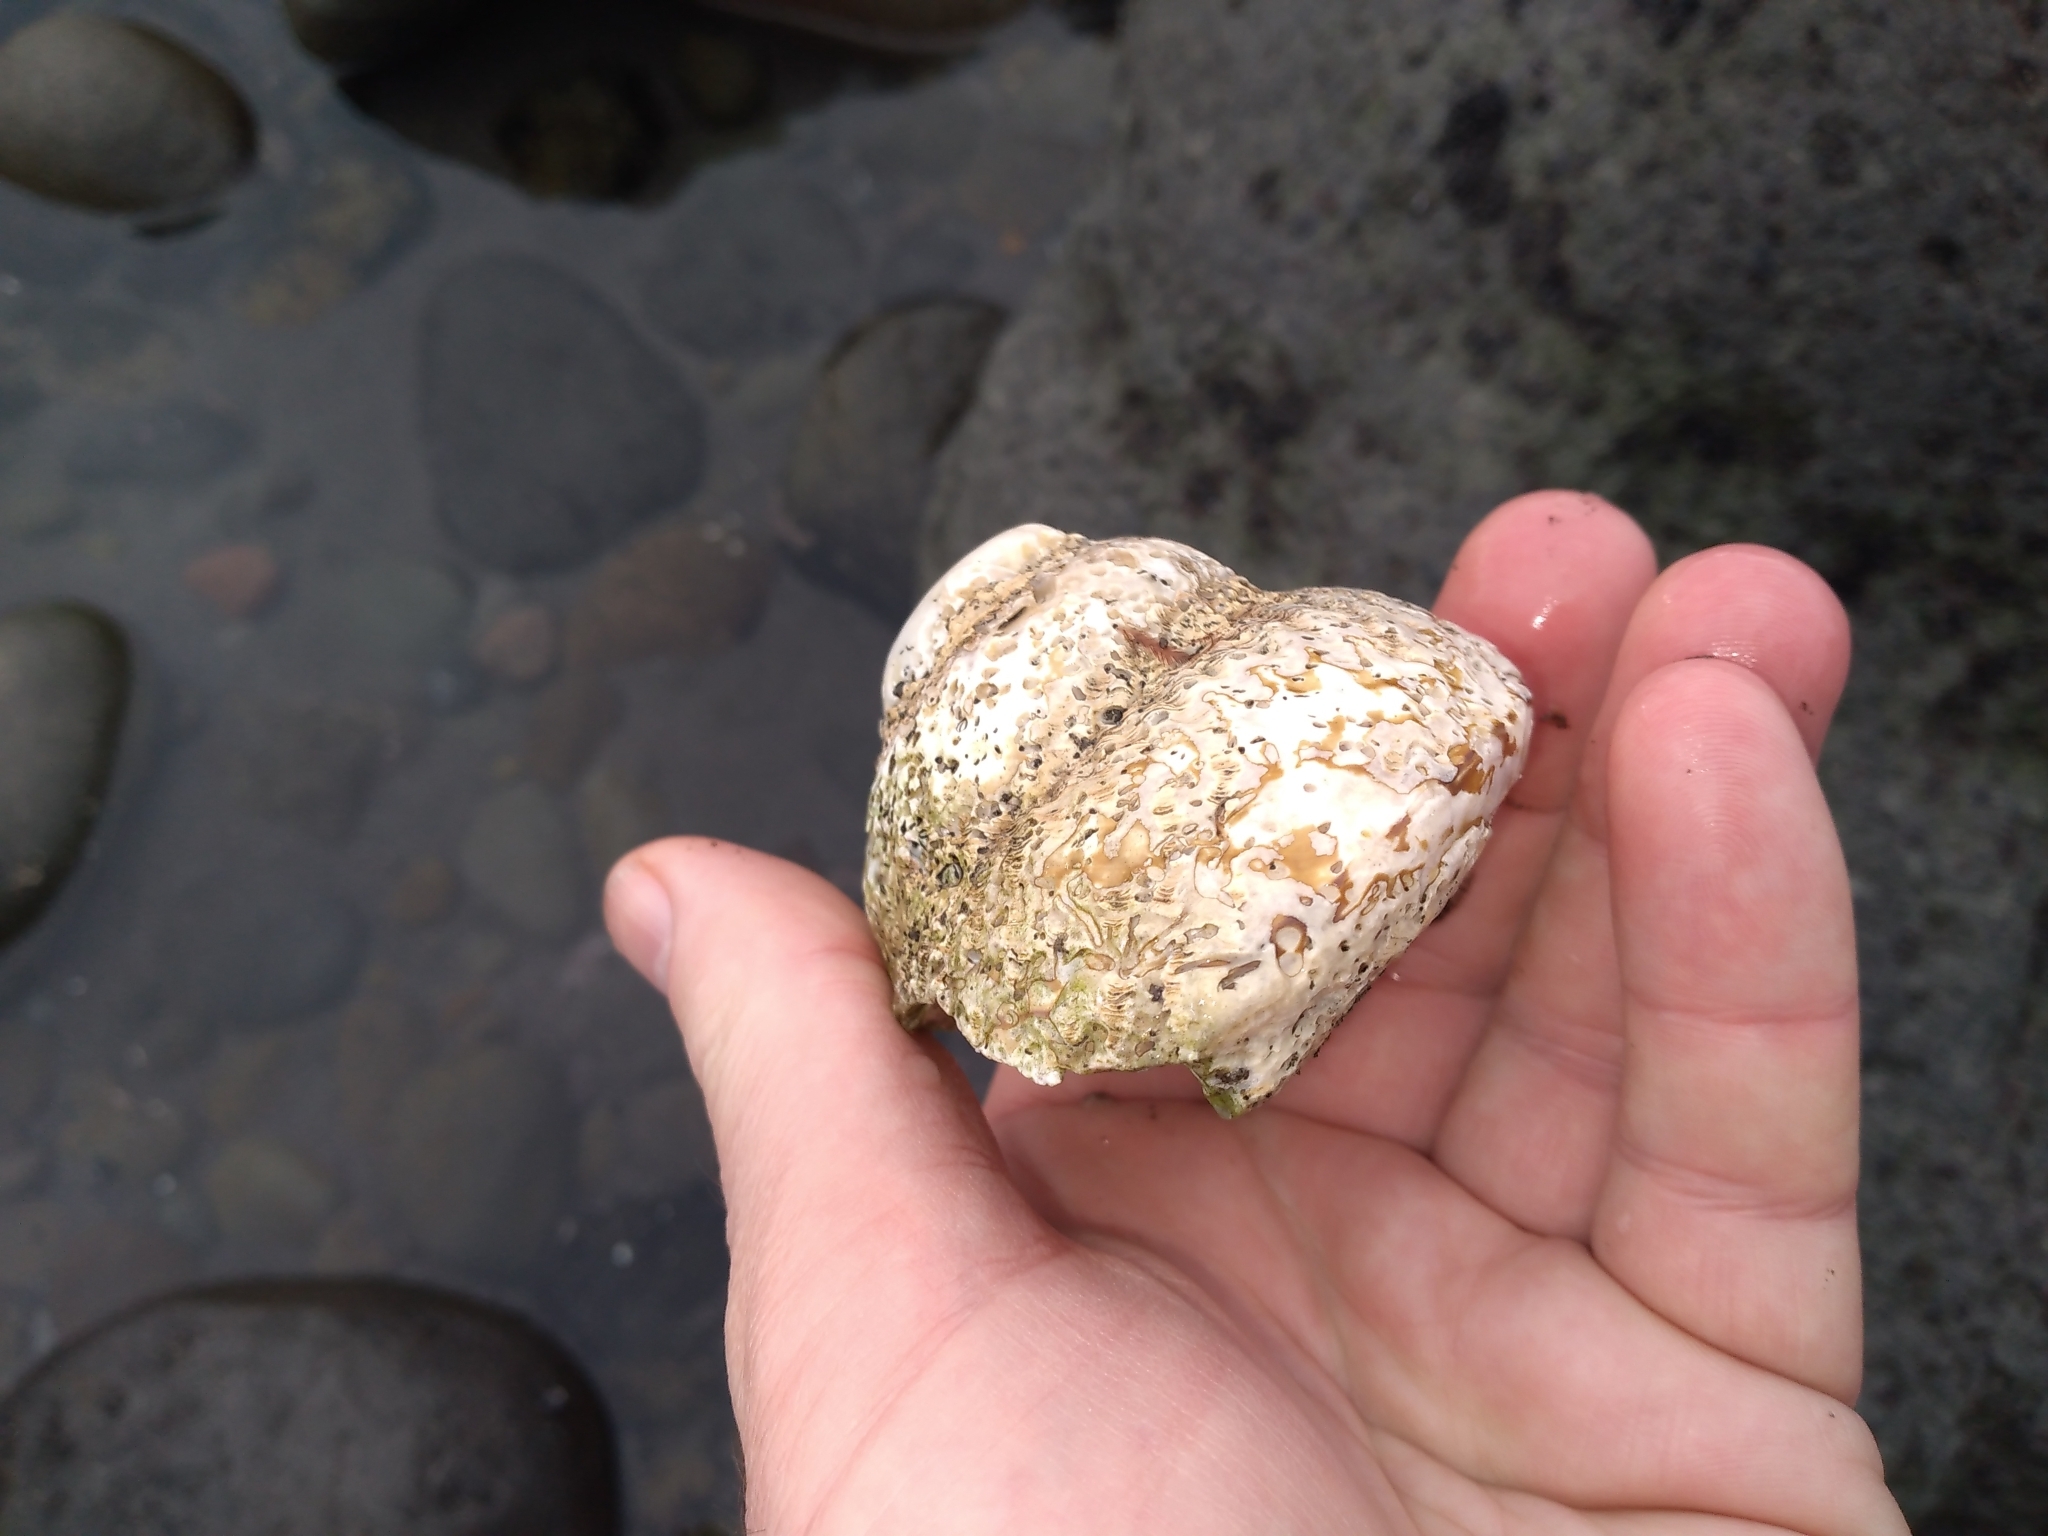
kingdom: Animalia
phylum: Mollusca
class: Gastropoda
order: Trochida
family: Turbinidae
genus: Cookia
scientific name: Cookia sulcata
